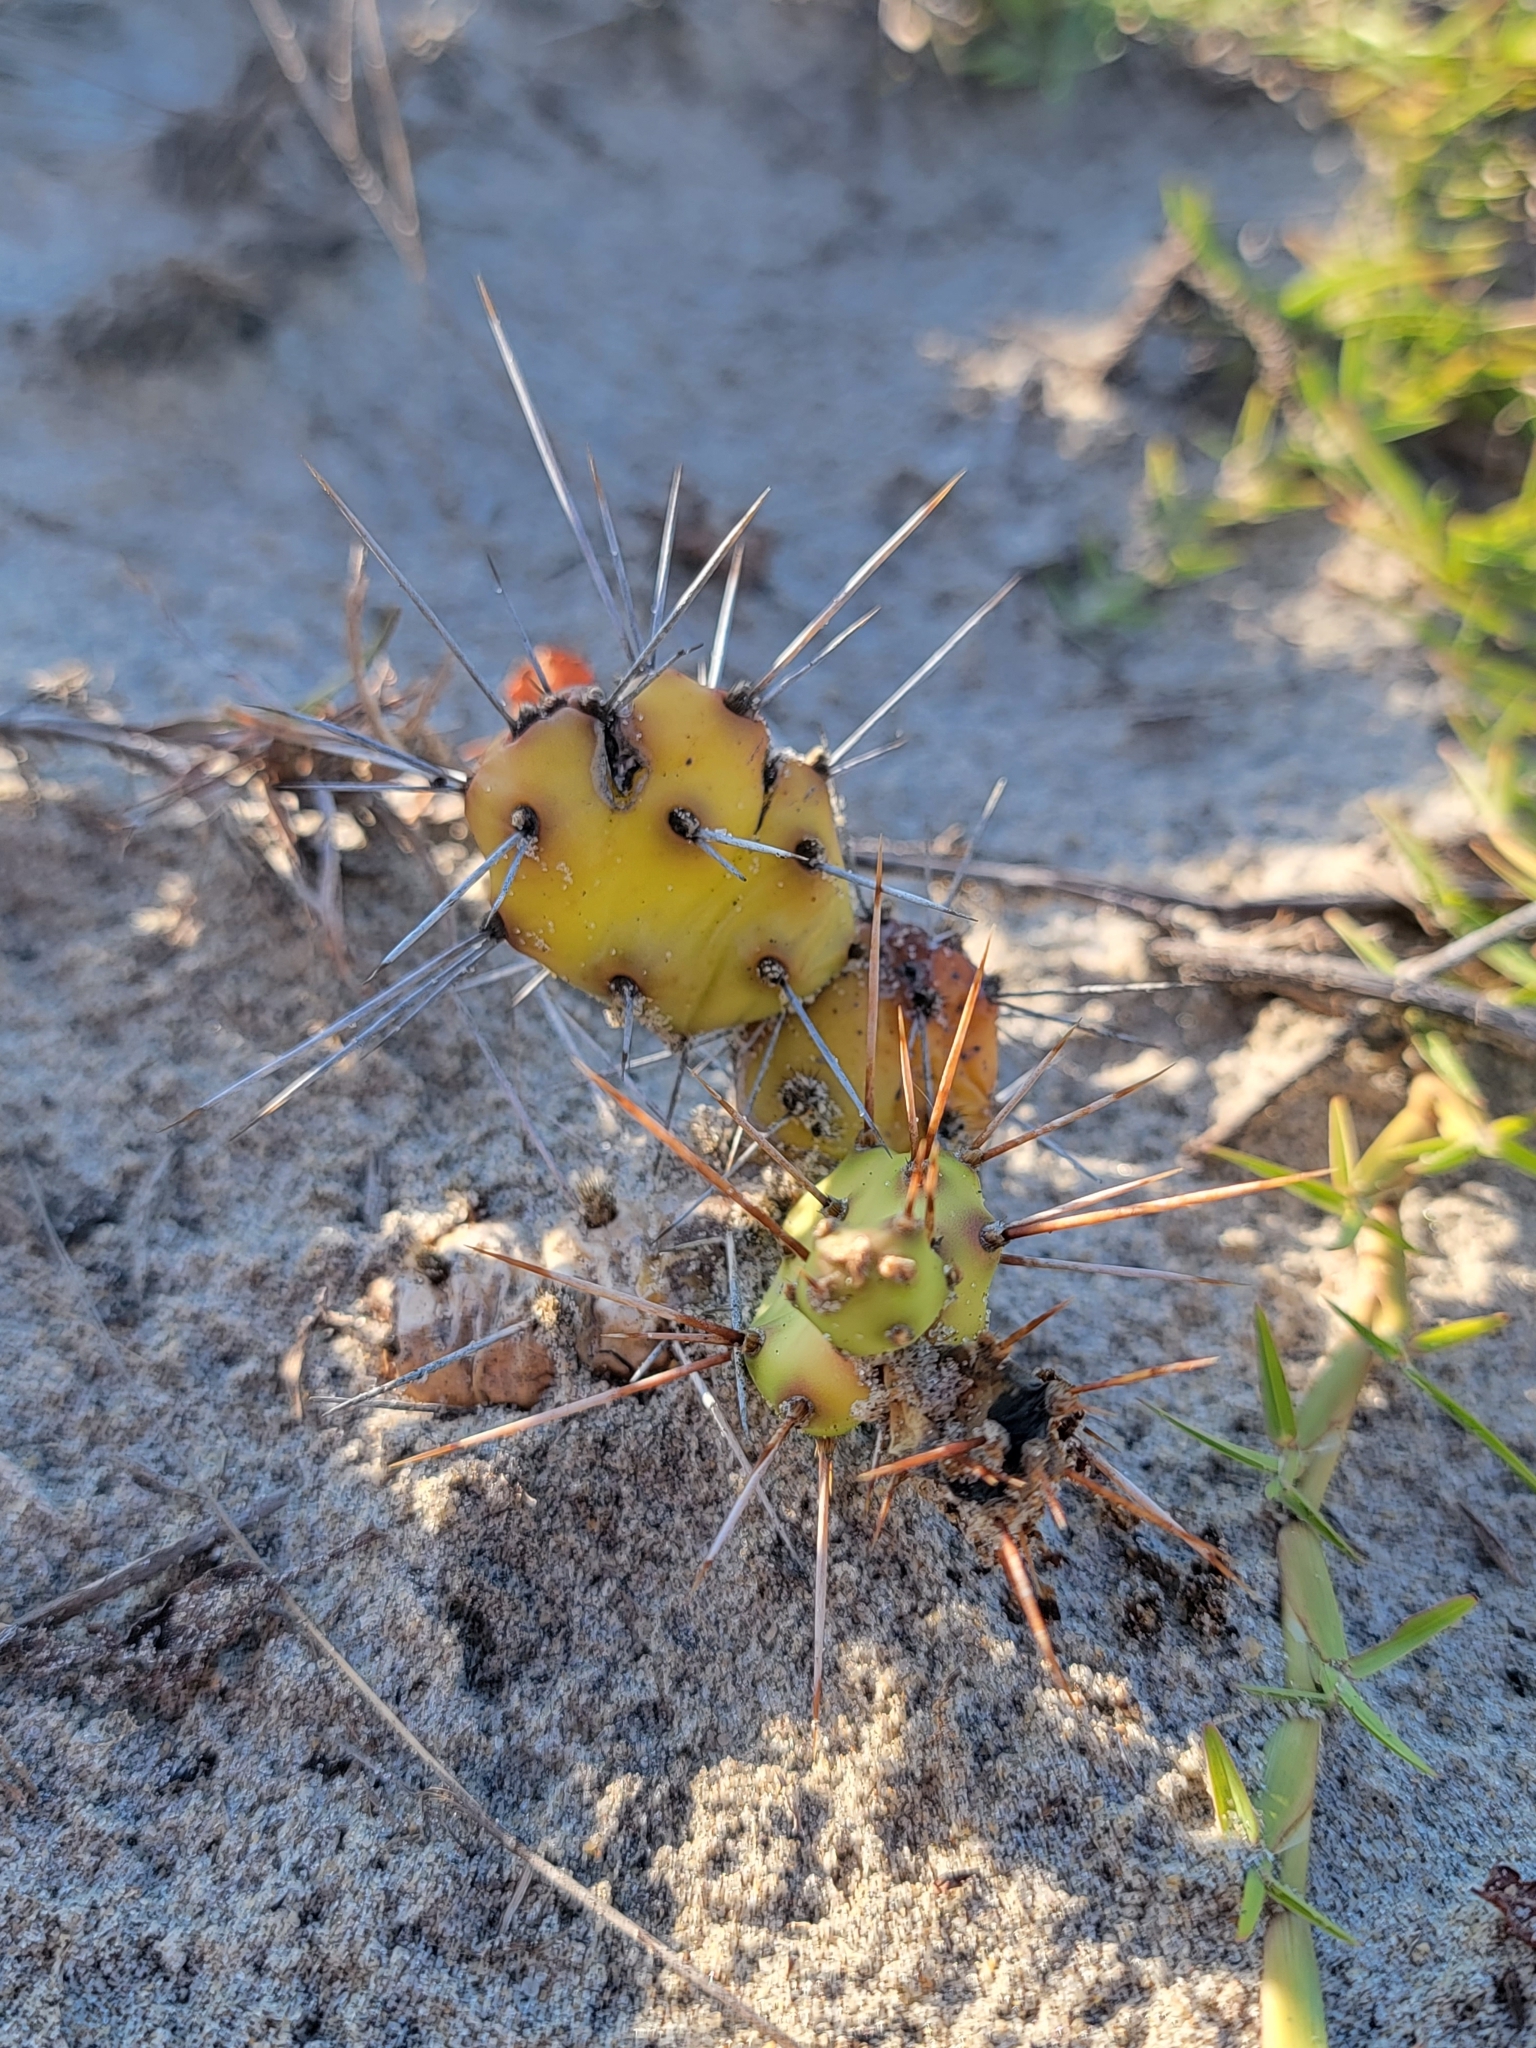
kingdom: Plantae
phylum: Tracheophyta
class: Magnoliopsida
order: Caryophyllales
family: Cactaceae
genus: Opuntia
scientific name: Opuntia drummondii
